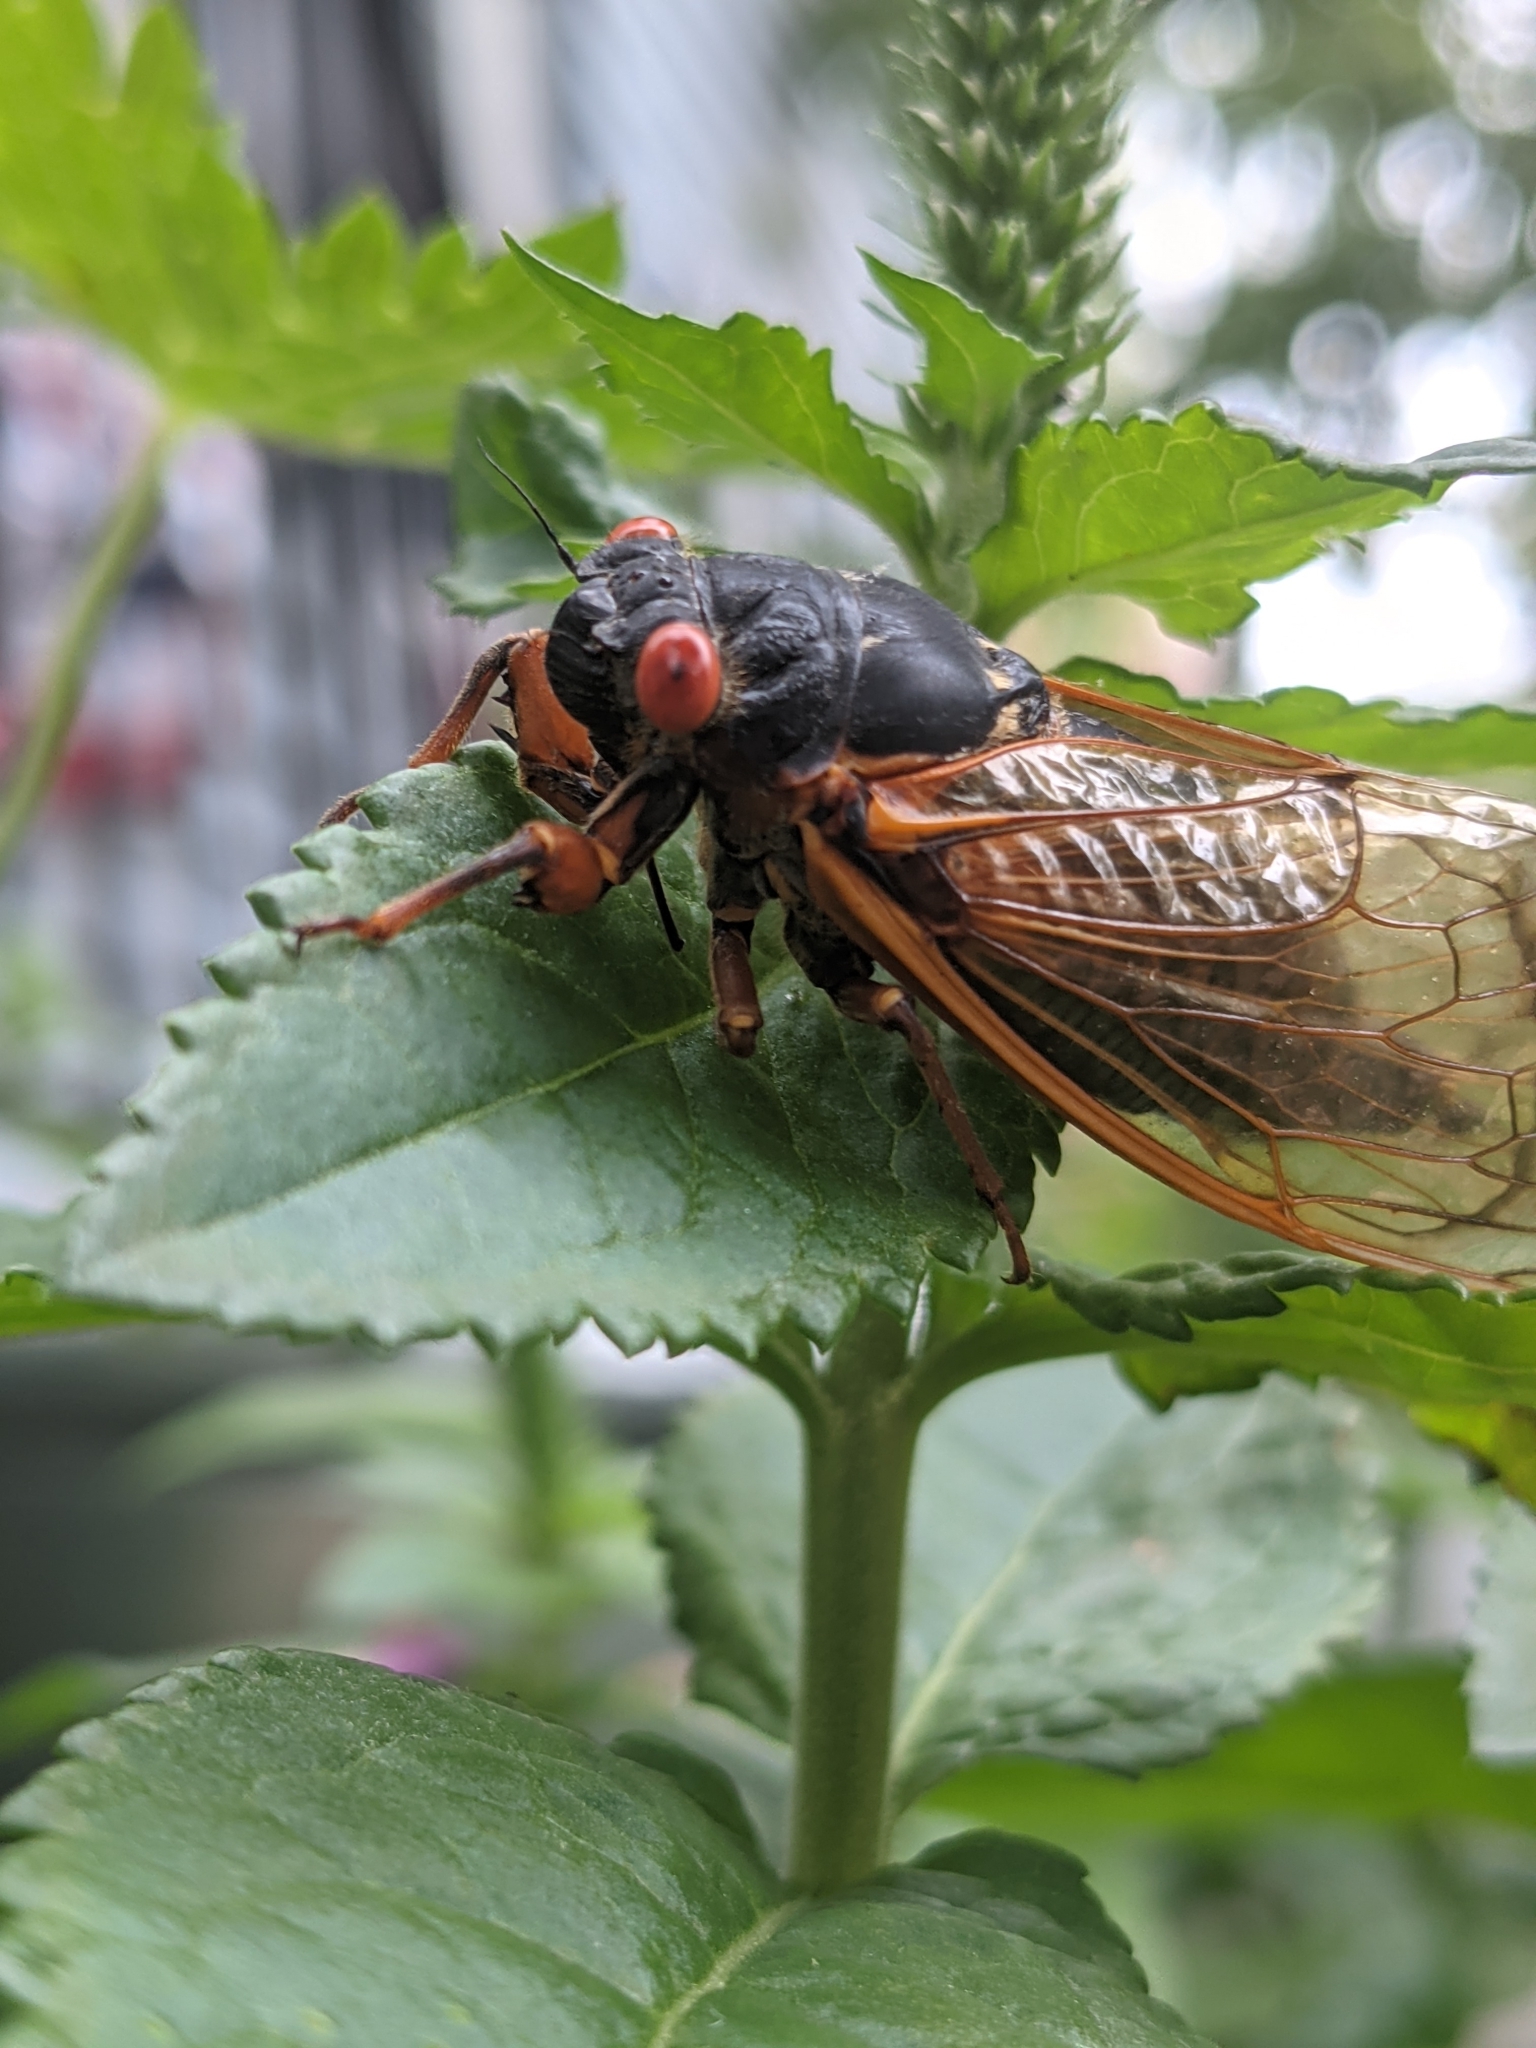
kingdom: Animalia
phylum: Arthropoda
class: Insecta
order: Hemiptera
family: Cicadidae
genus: Magicicada
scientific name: Magicicada septendecim
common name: Periodical cicada
